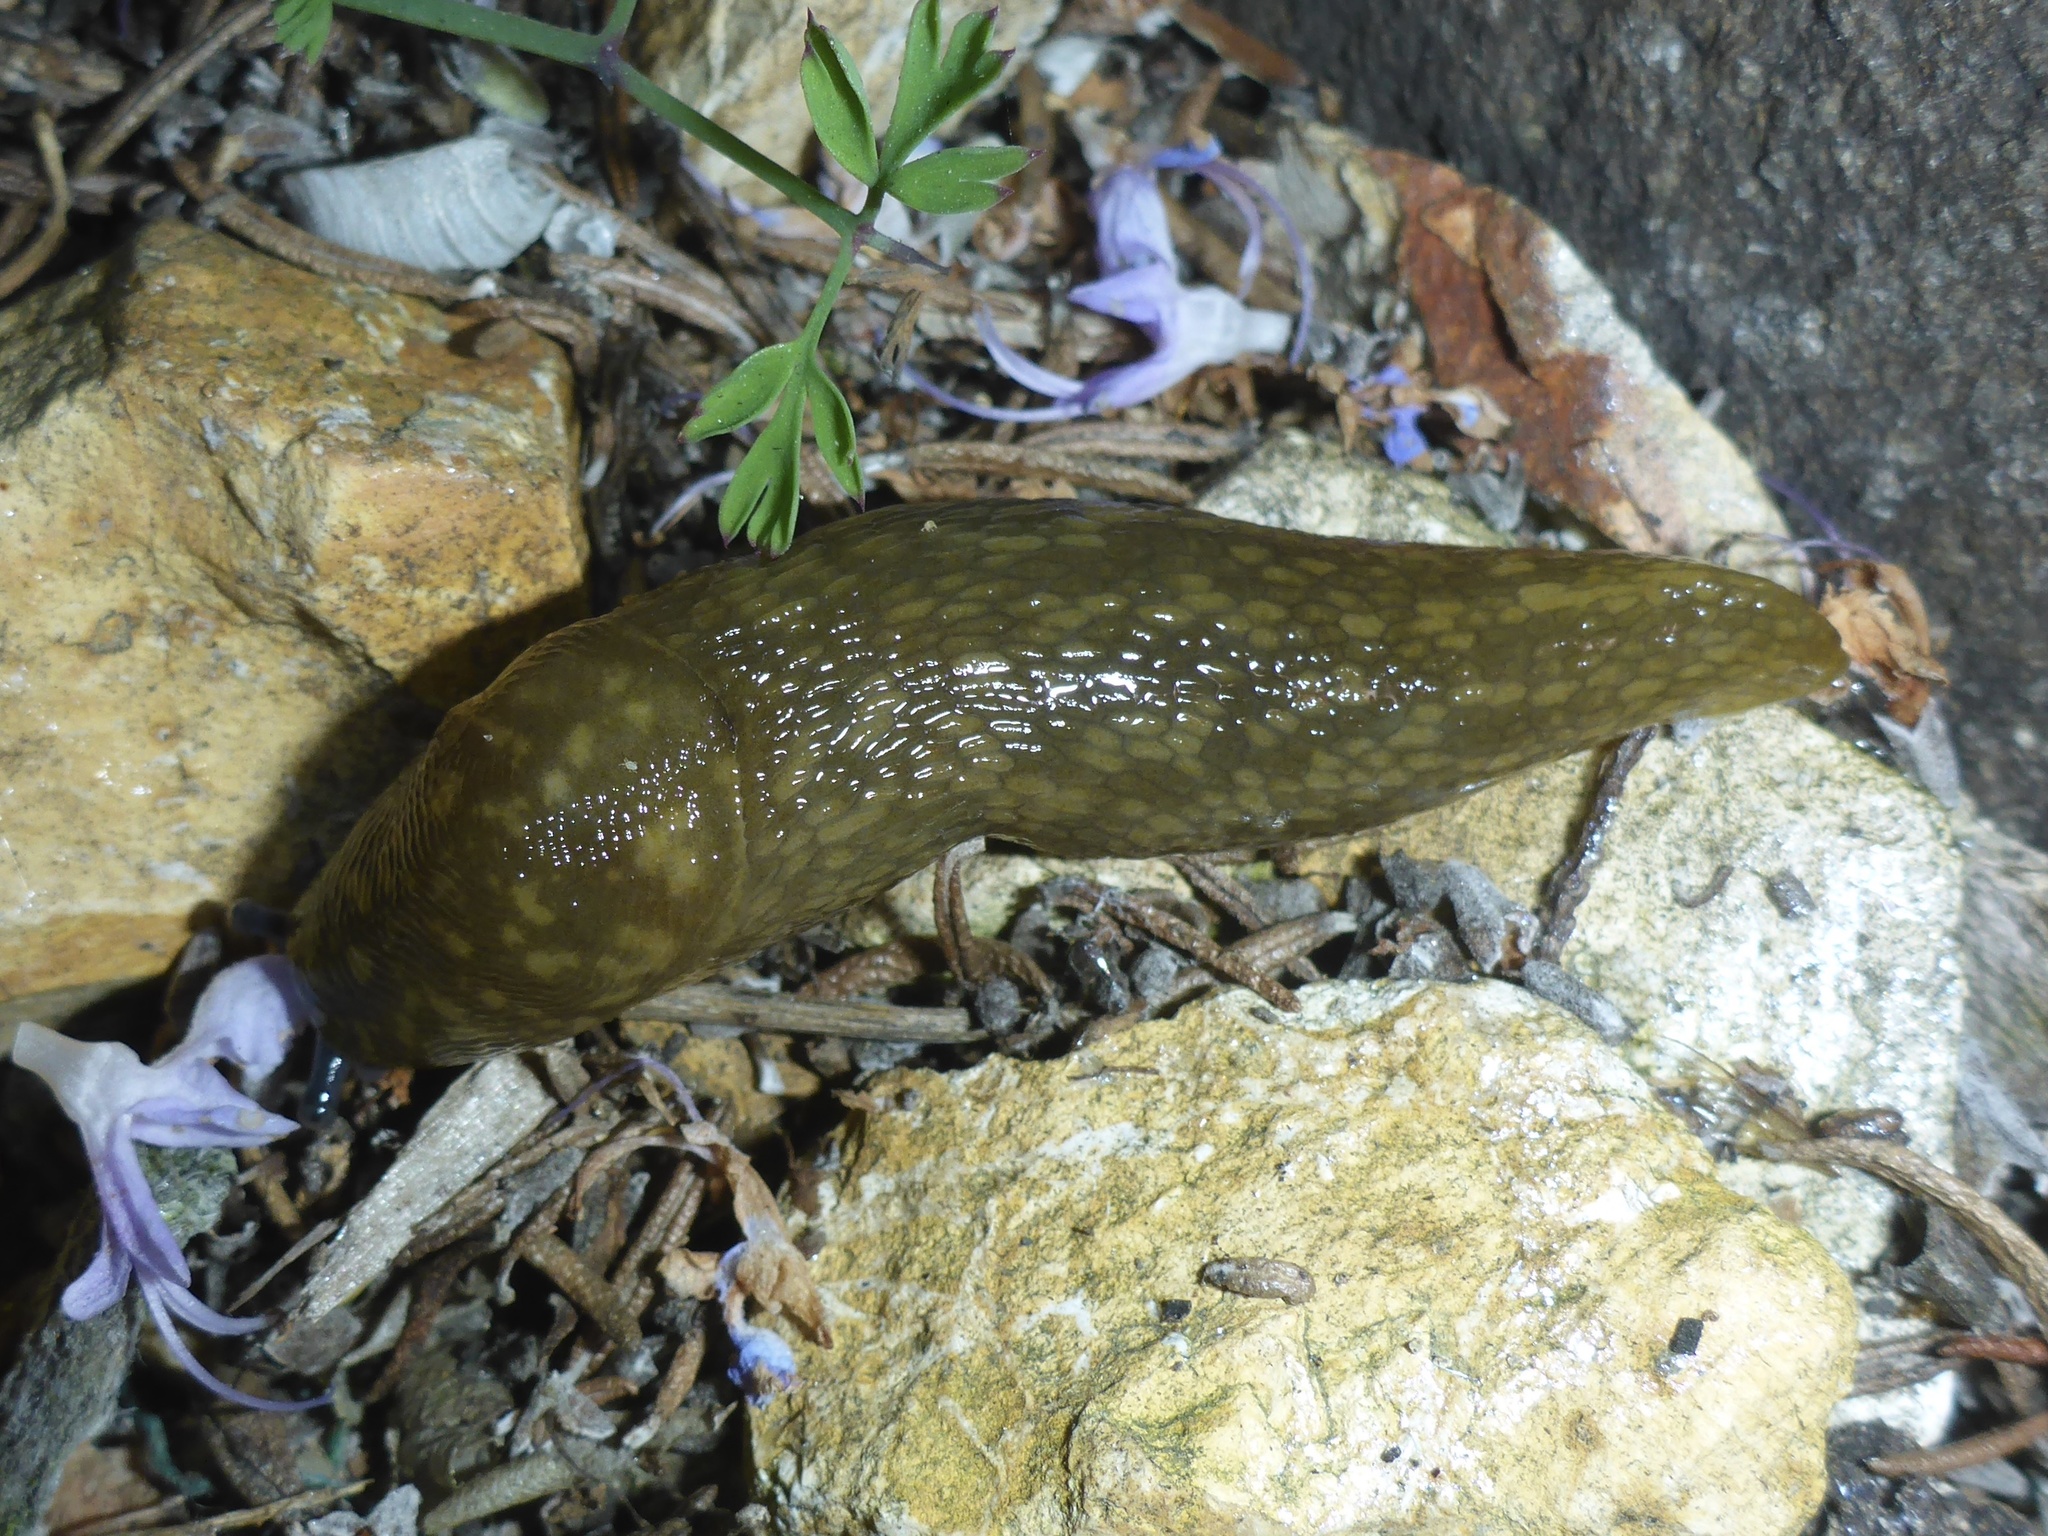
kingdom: Animalia
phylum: Mollusca
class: Gastropoda
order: Stylommatophora
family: Limacidae
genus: Limacus
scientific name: Limacus flavus
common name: Yellow gardenslug
